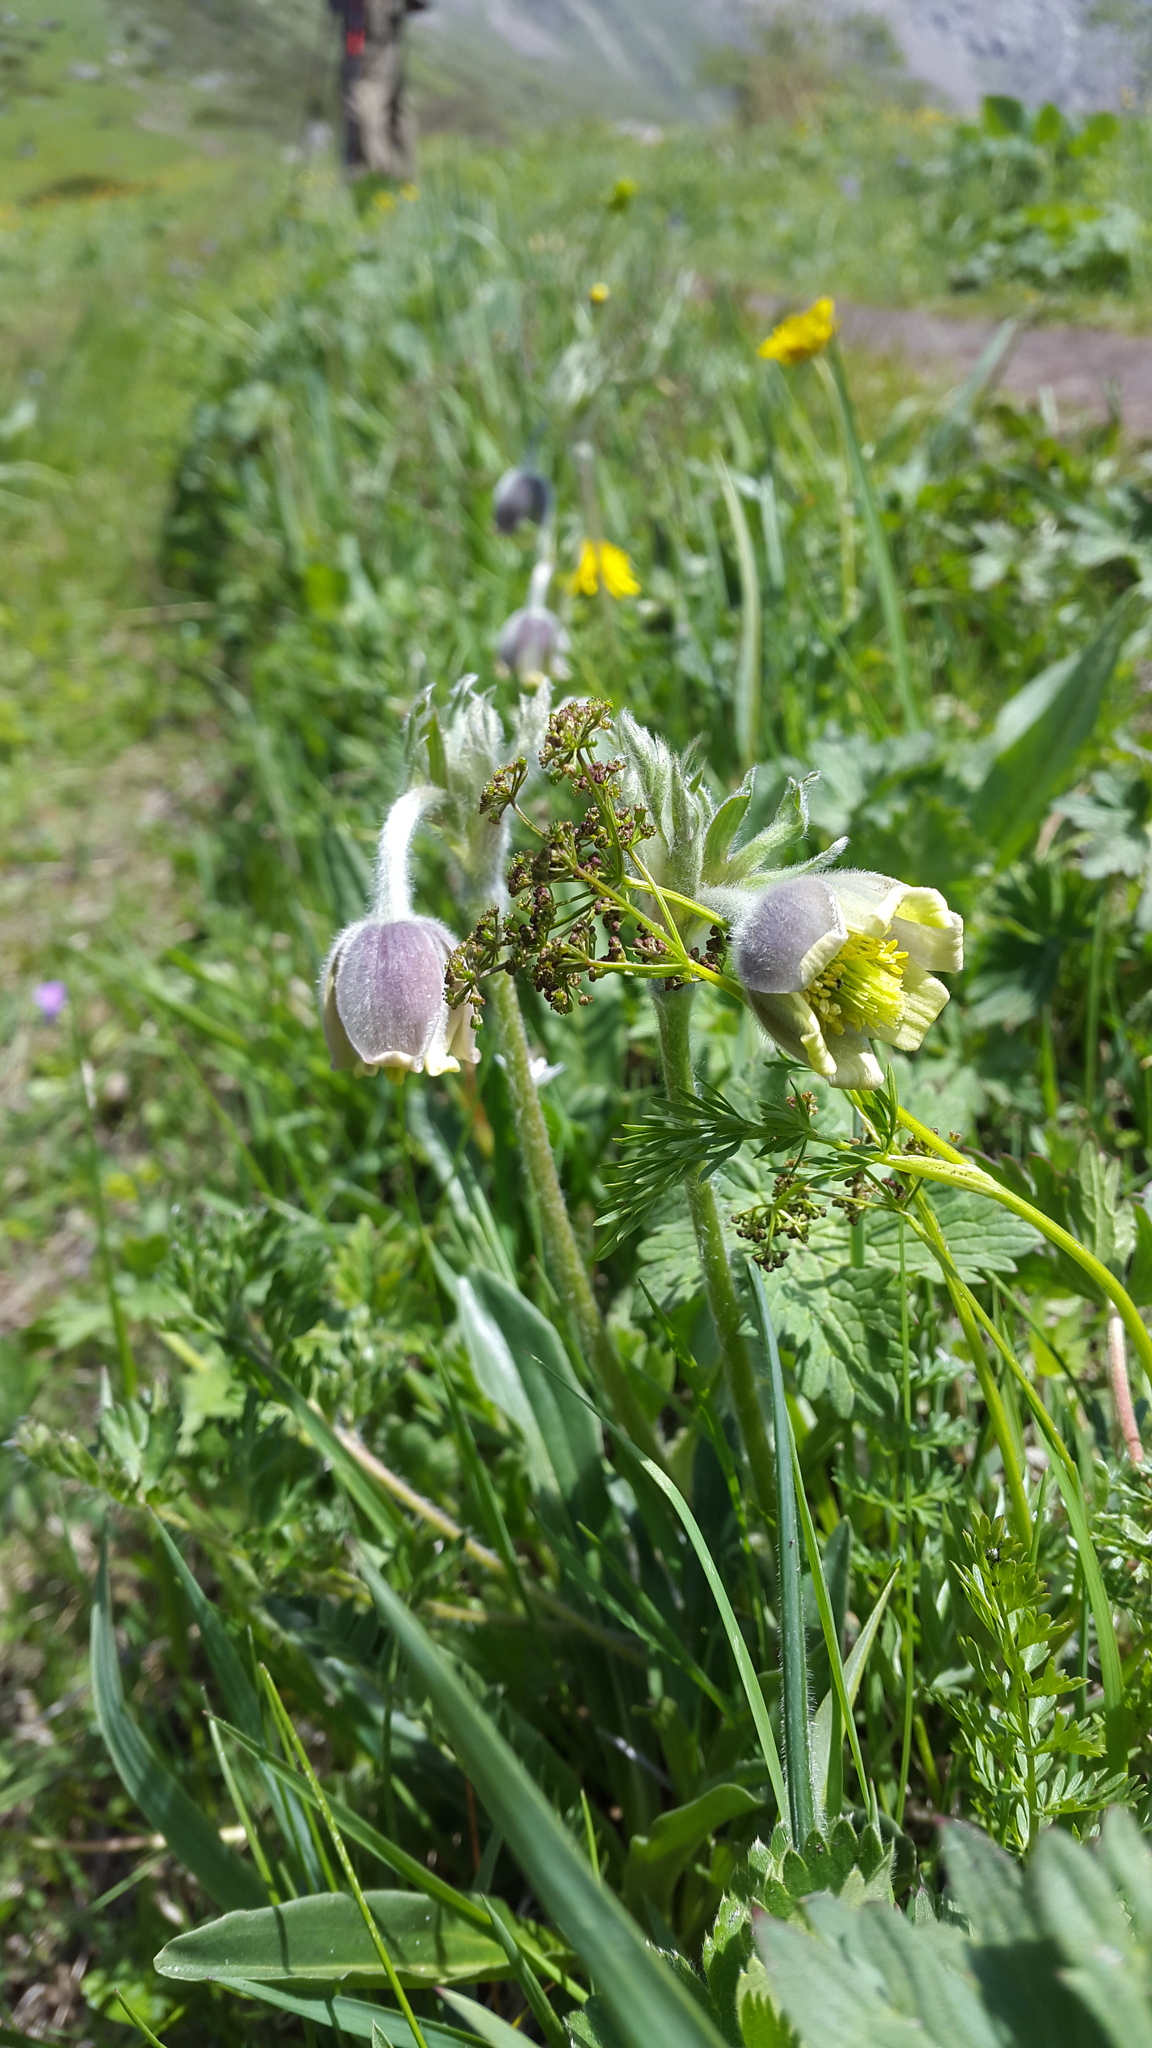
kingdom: Plantae
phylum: Tracheophyta
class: Magnoliopsida
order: Ranunculales
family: Ranunculaceae
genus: Pulsatilla
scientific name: Pulsatilla campanella
